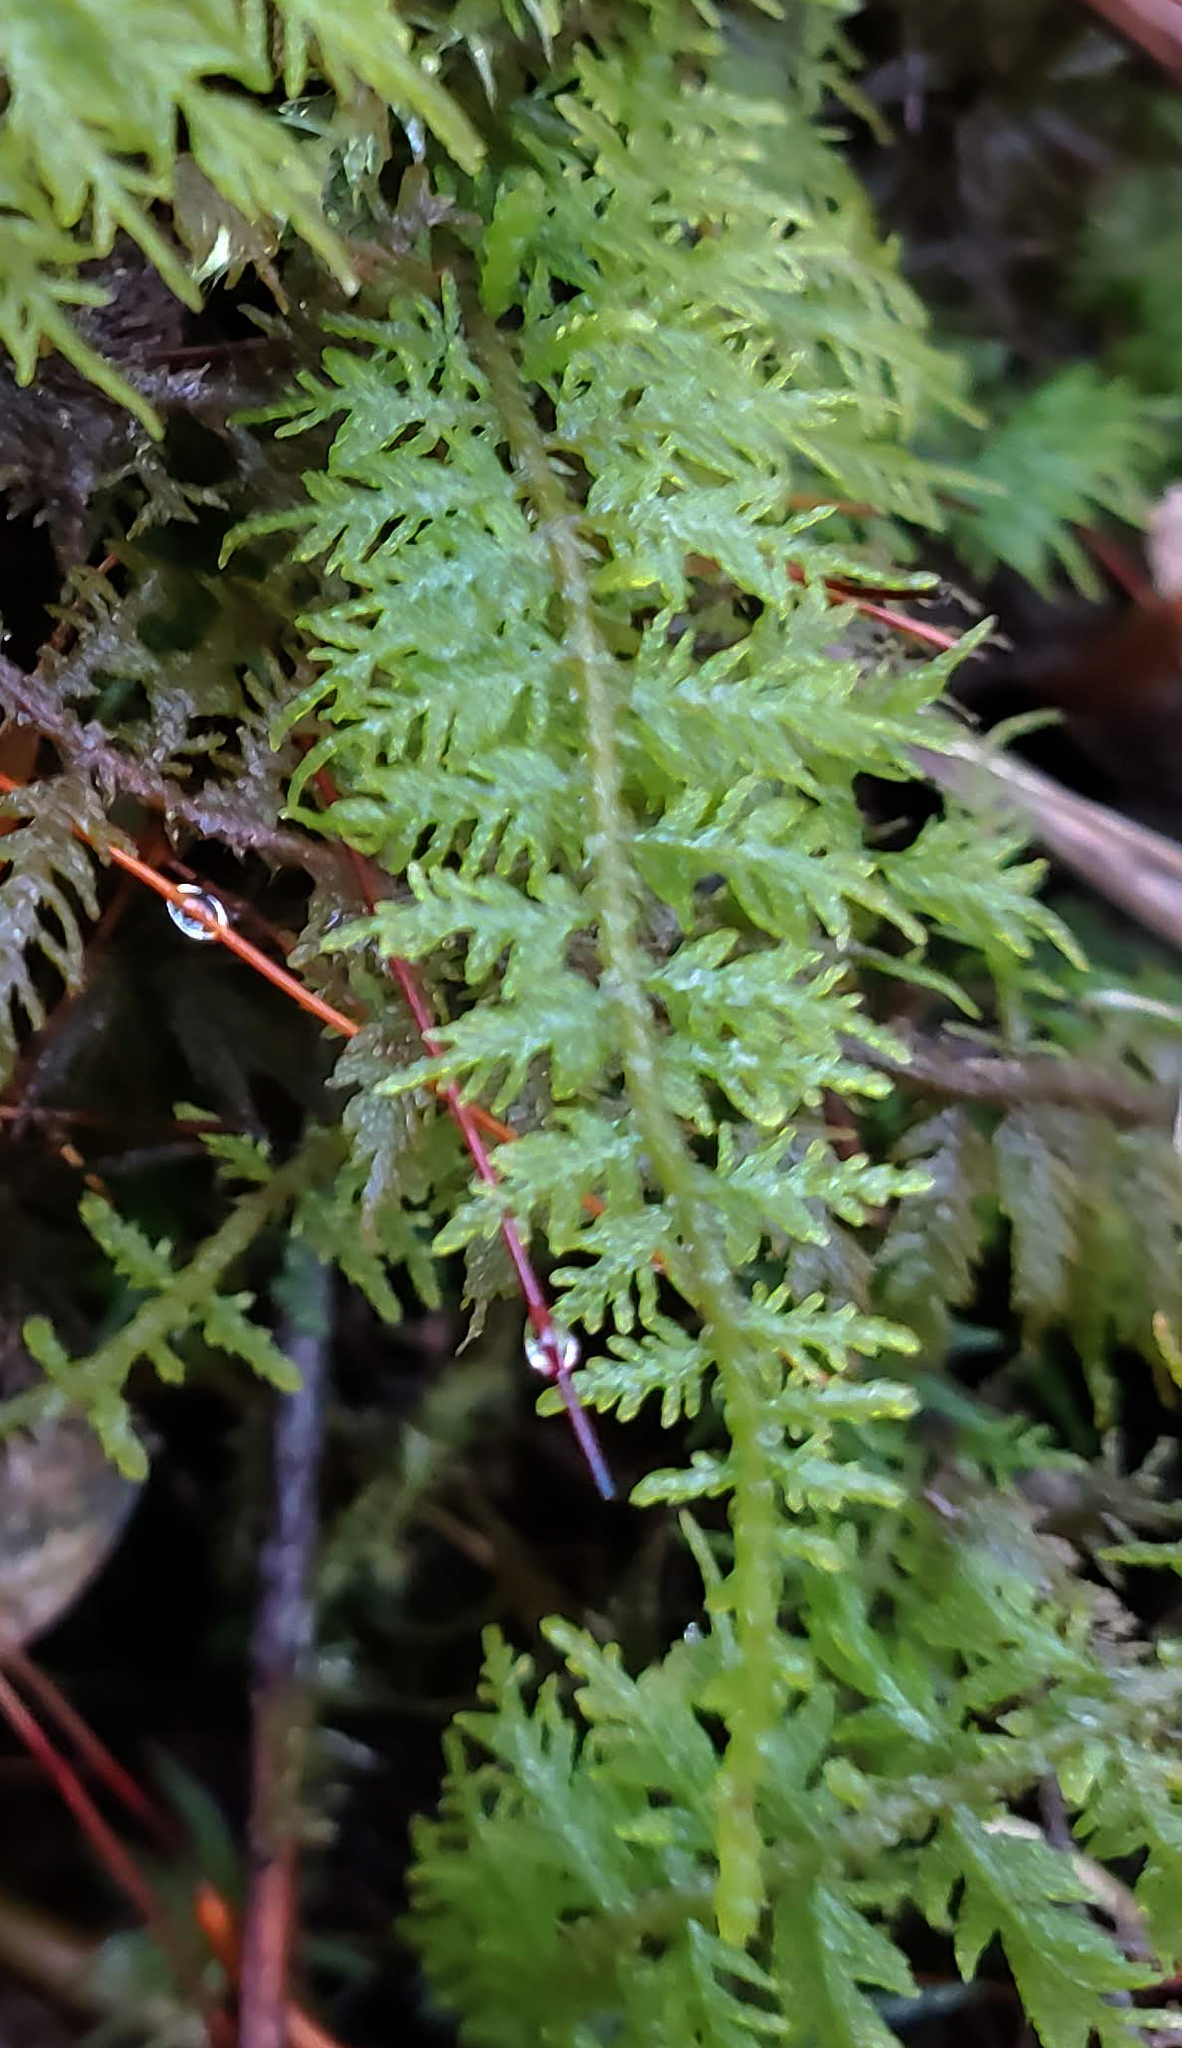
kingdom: Plantae
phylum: Bryophyta
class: Bryopsida
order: Hypnales
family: Thuidiaceae
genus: Thuidium
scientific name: Thuidium delicatulum
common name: Delicate fern moss
